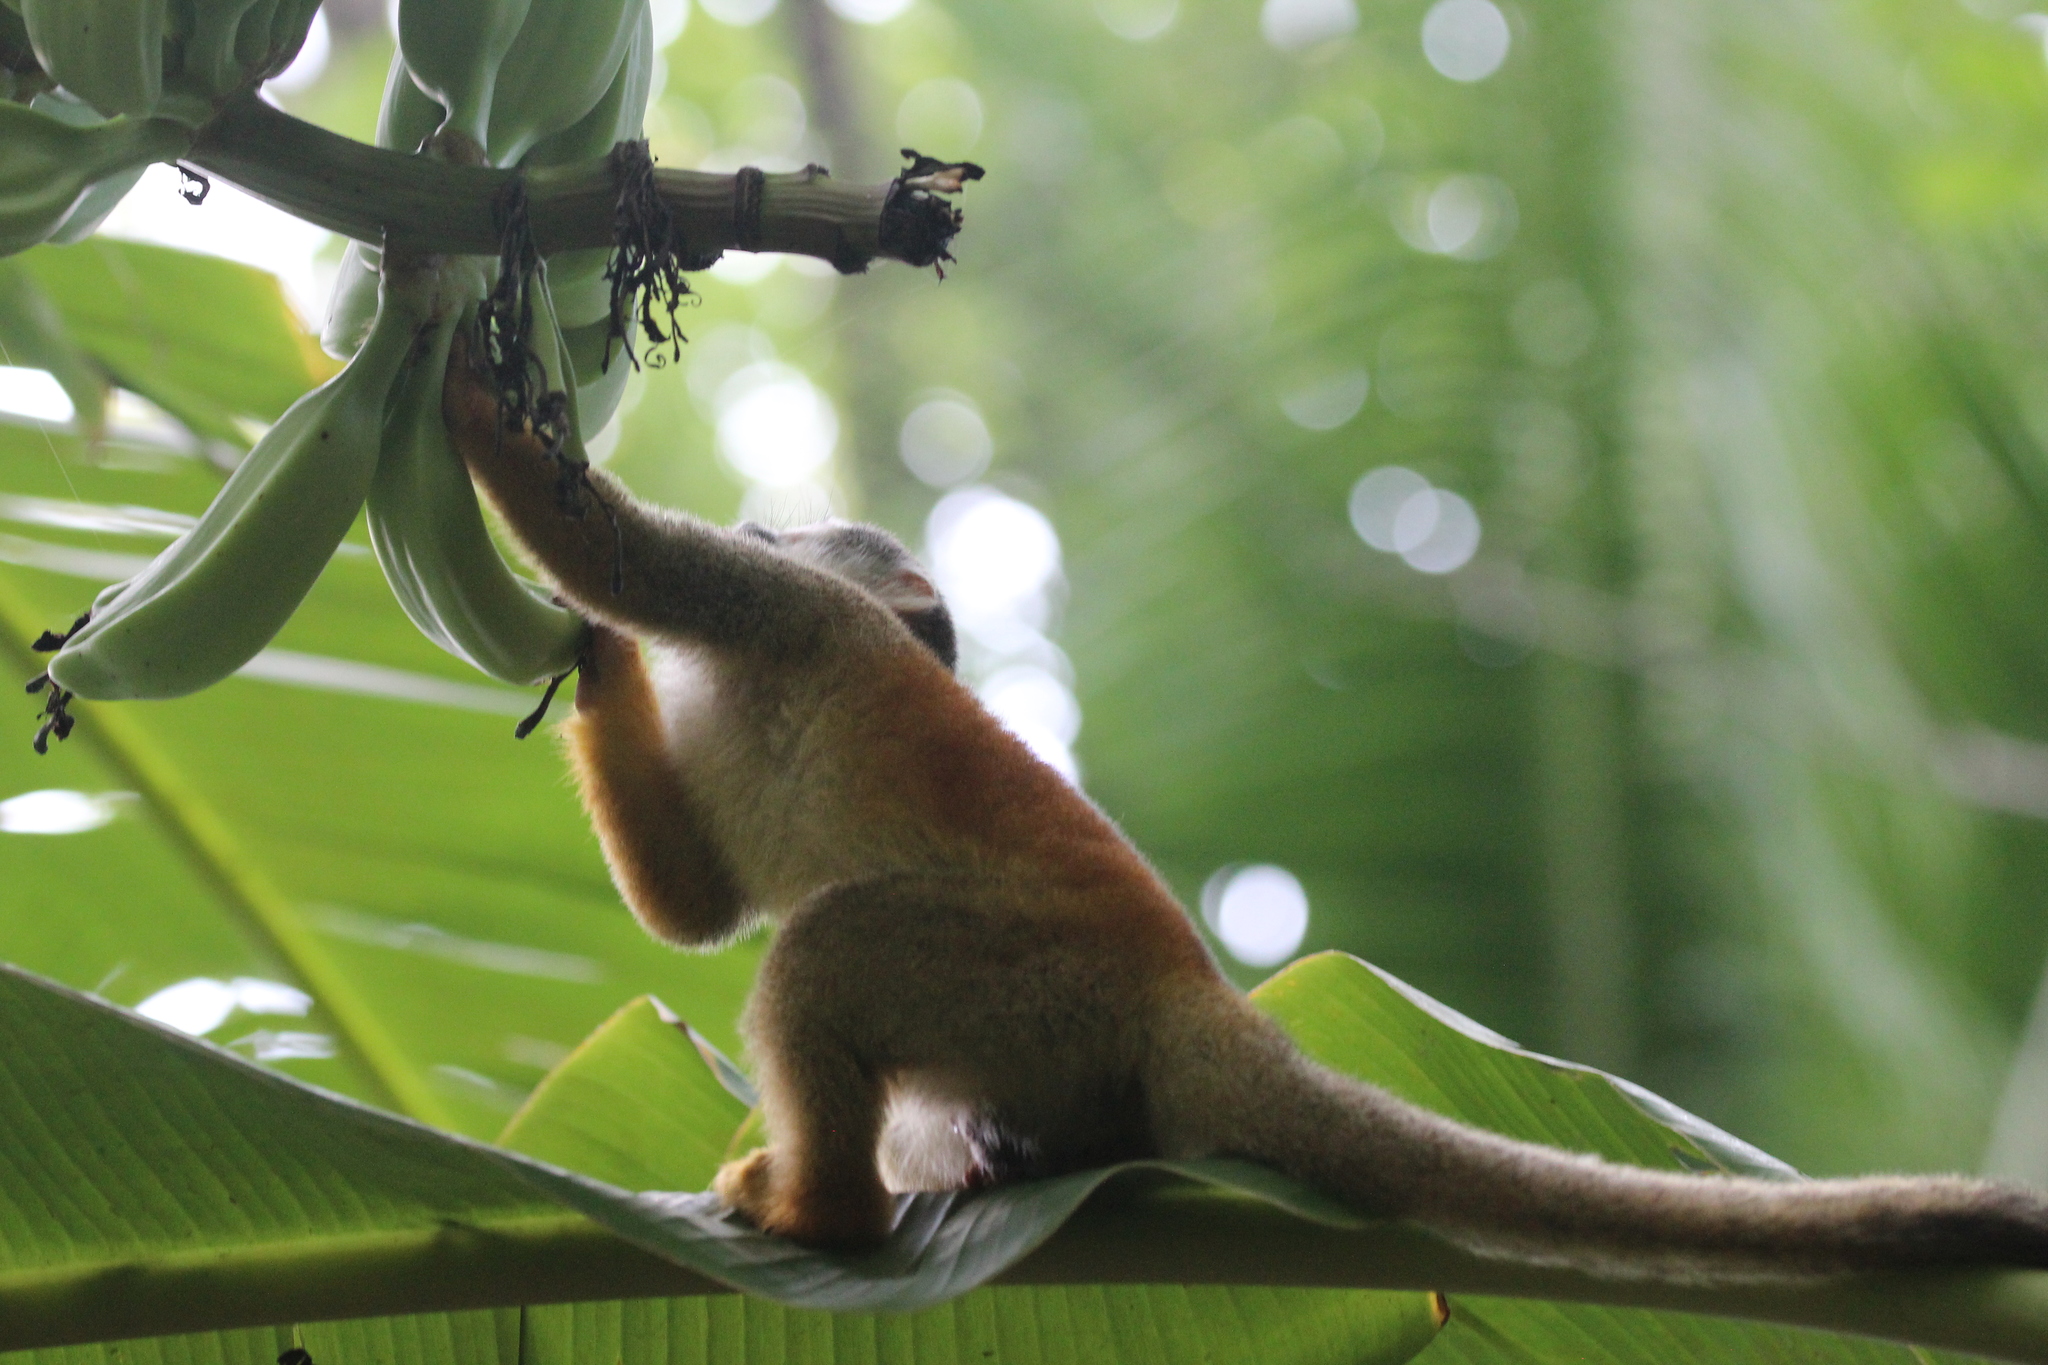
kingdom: Animalia
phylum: Chordata
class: Mammalia
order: Primates
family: Cebidae
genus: Saimiri
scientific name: Saimiri oerstedii
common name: Central american squirrel monkey
